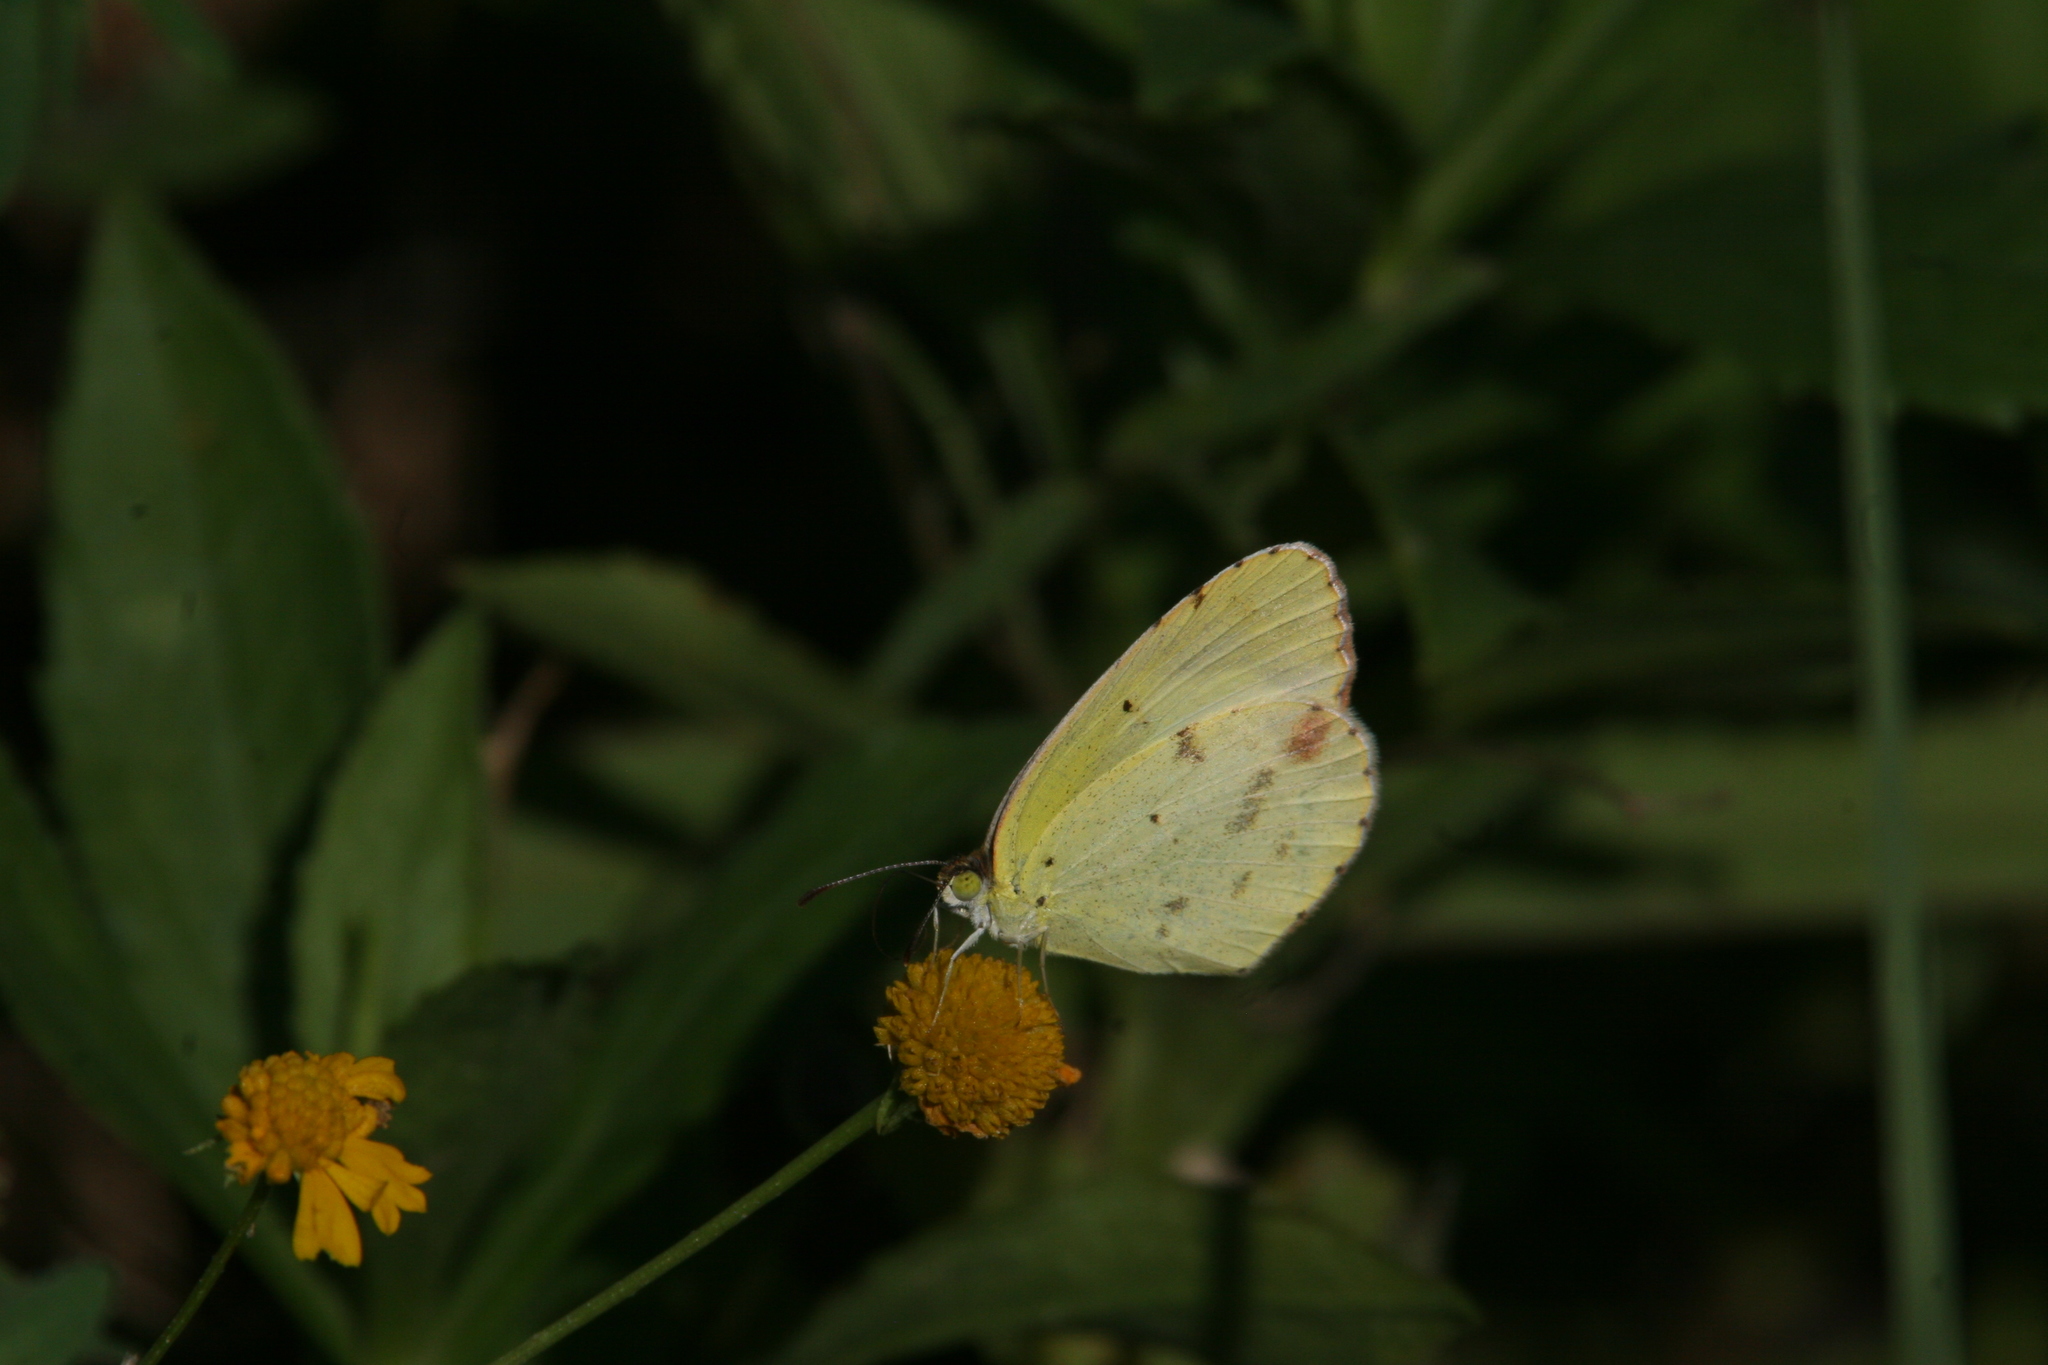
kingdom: Animalia
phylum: Arthropoda
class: Insecta
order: Lepidoptera
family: Pieridae
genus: Pyrisitia
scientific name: Pyrisitia lisa
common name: Little yellow
